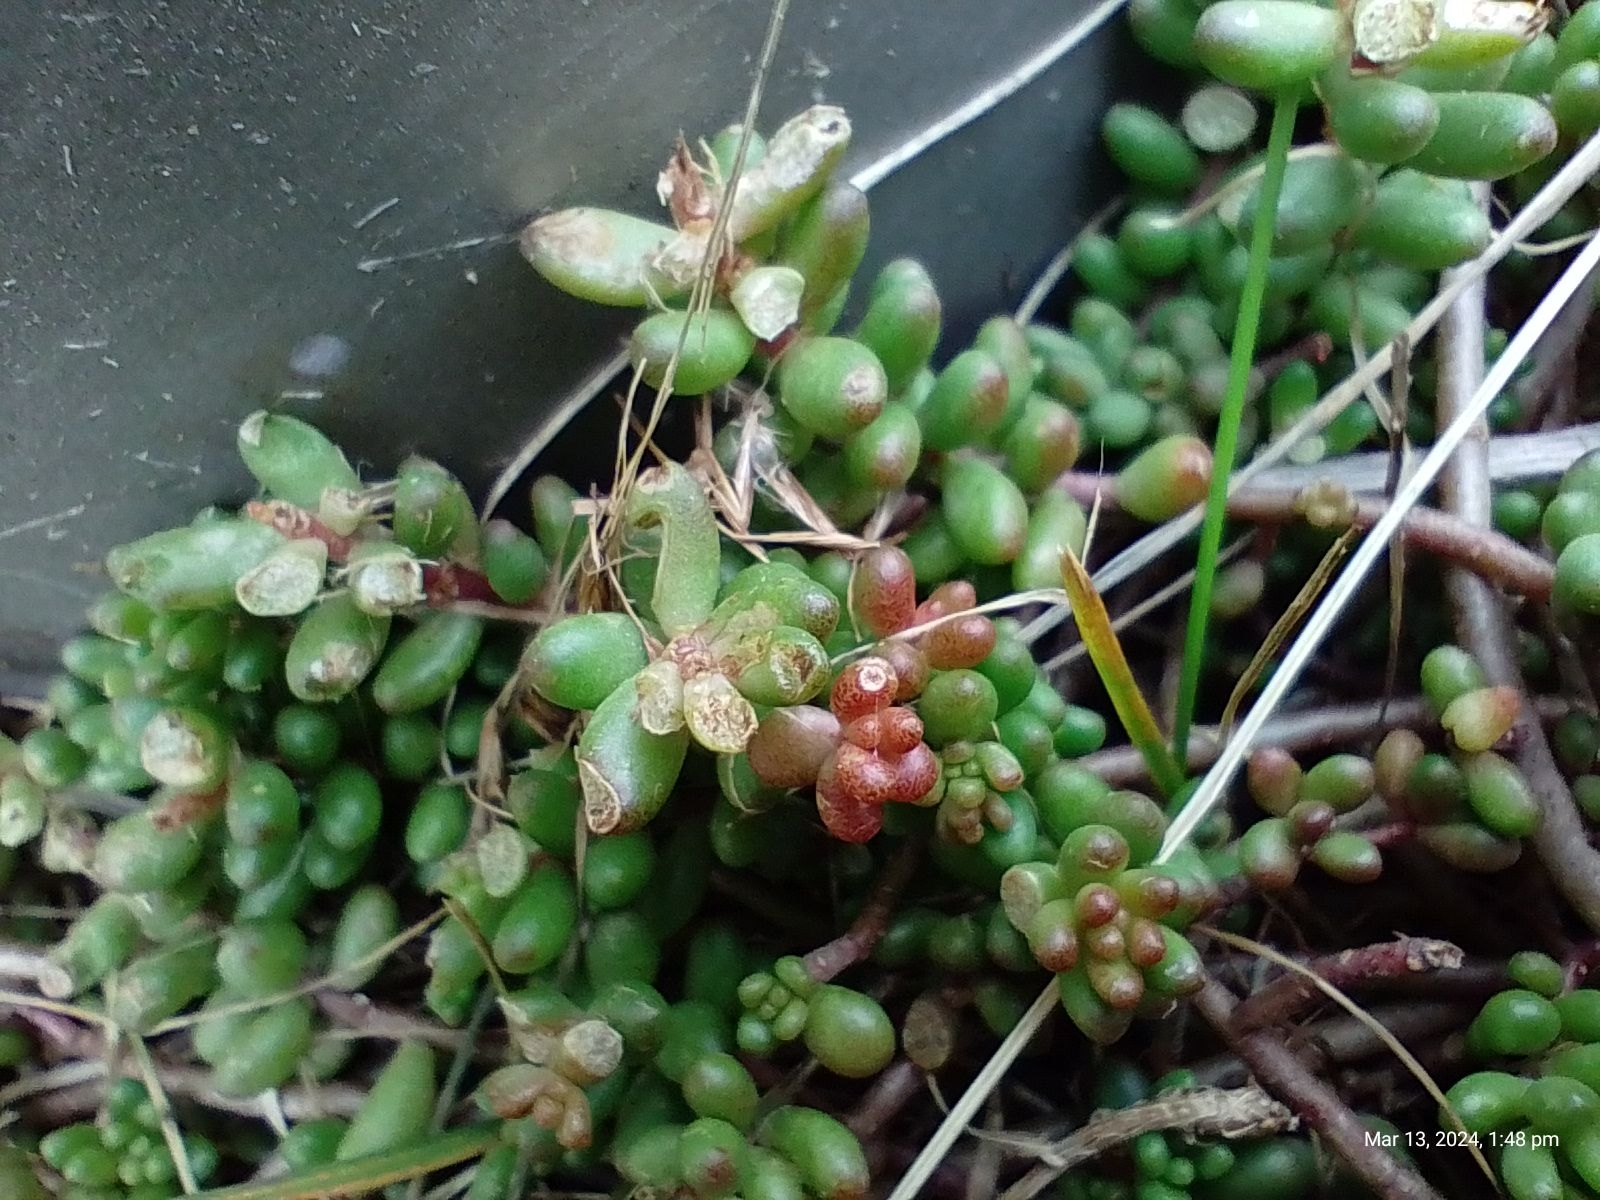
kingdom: Plantae
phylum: Tracheophyta
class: Magnoliopsida
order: Saxifragales
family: Crassulaceae
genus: Sedum
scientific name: Sedum album
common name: White stonecrop
